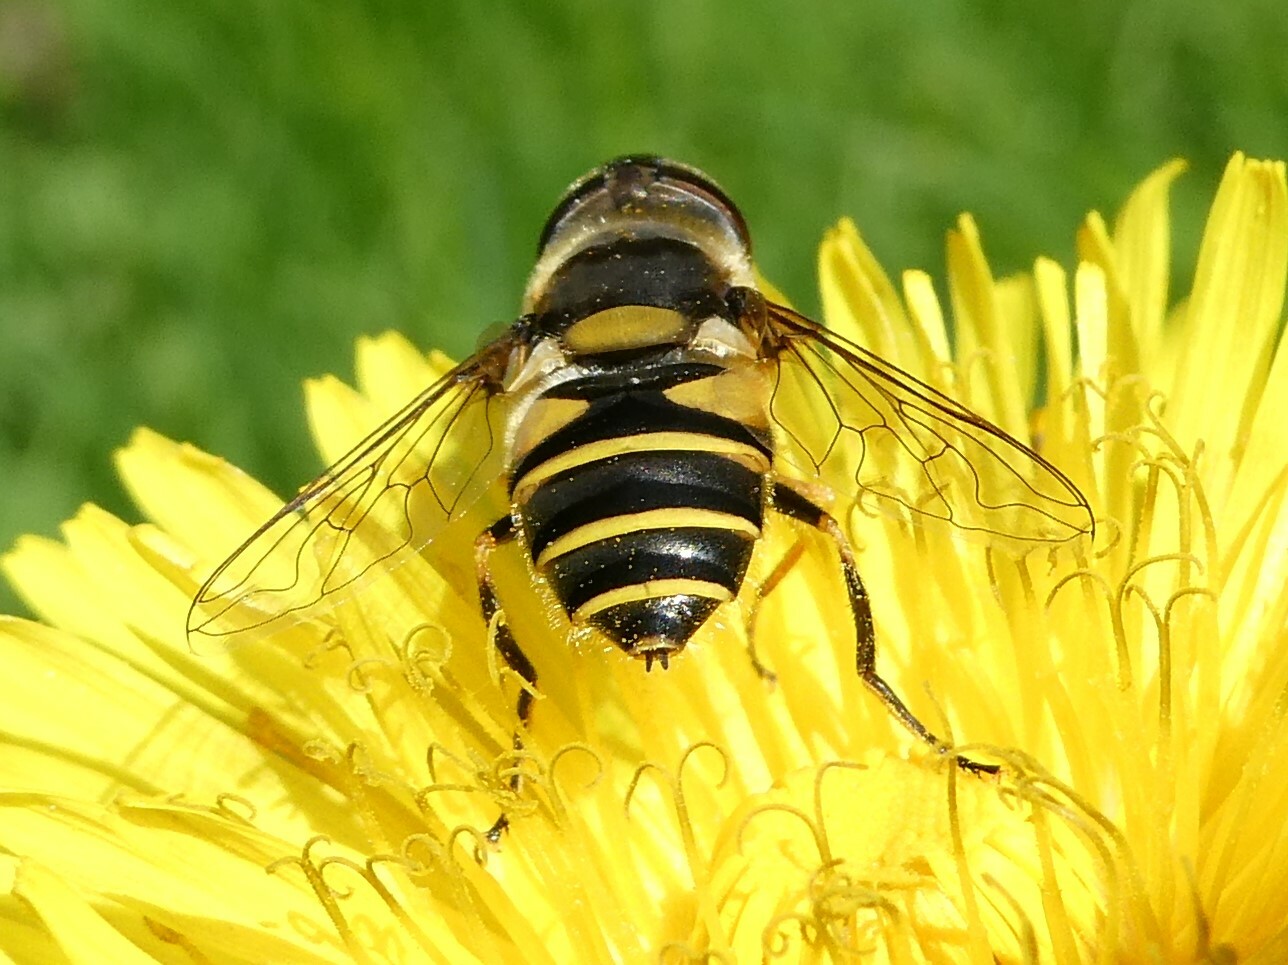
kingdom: Animalia
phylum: Arthropoda
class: Insecta
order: Diptera
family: Syrphidae
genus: Eristalis
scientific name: Eristalis transversa
